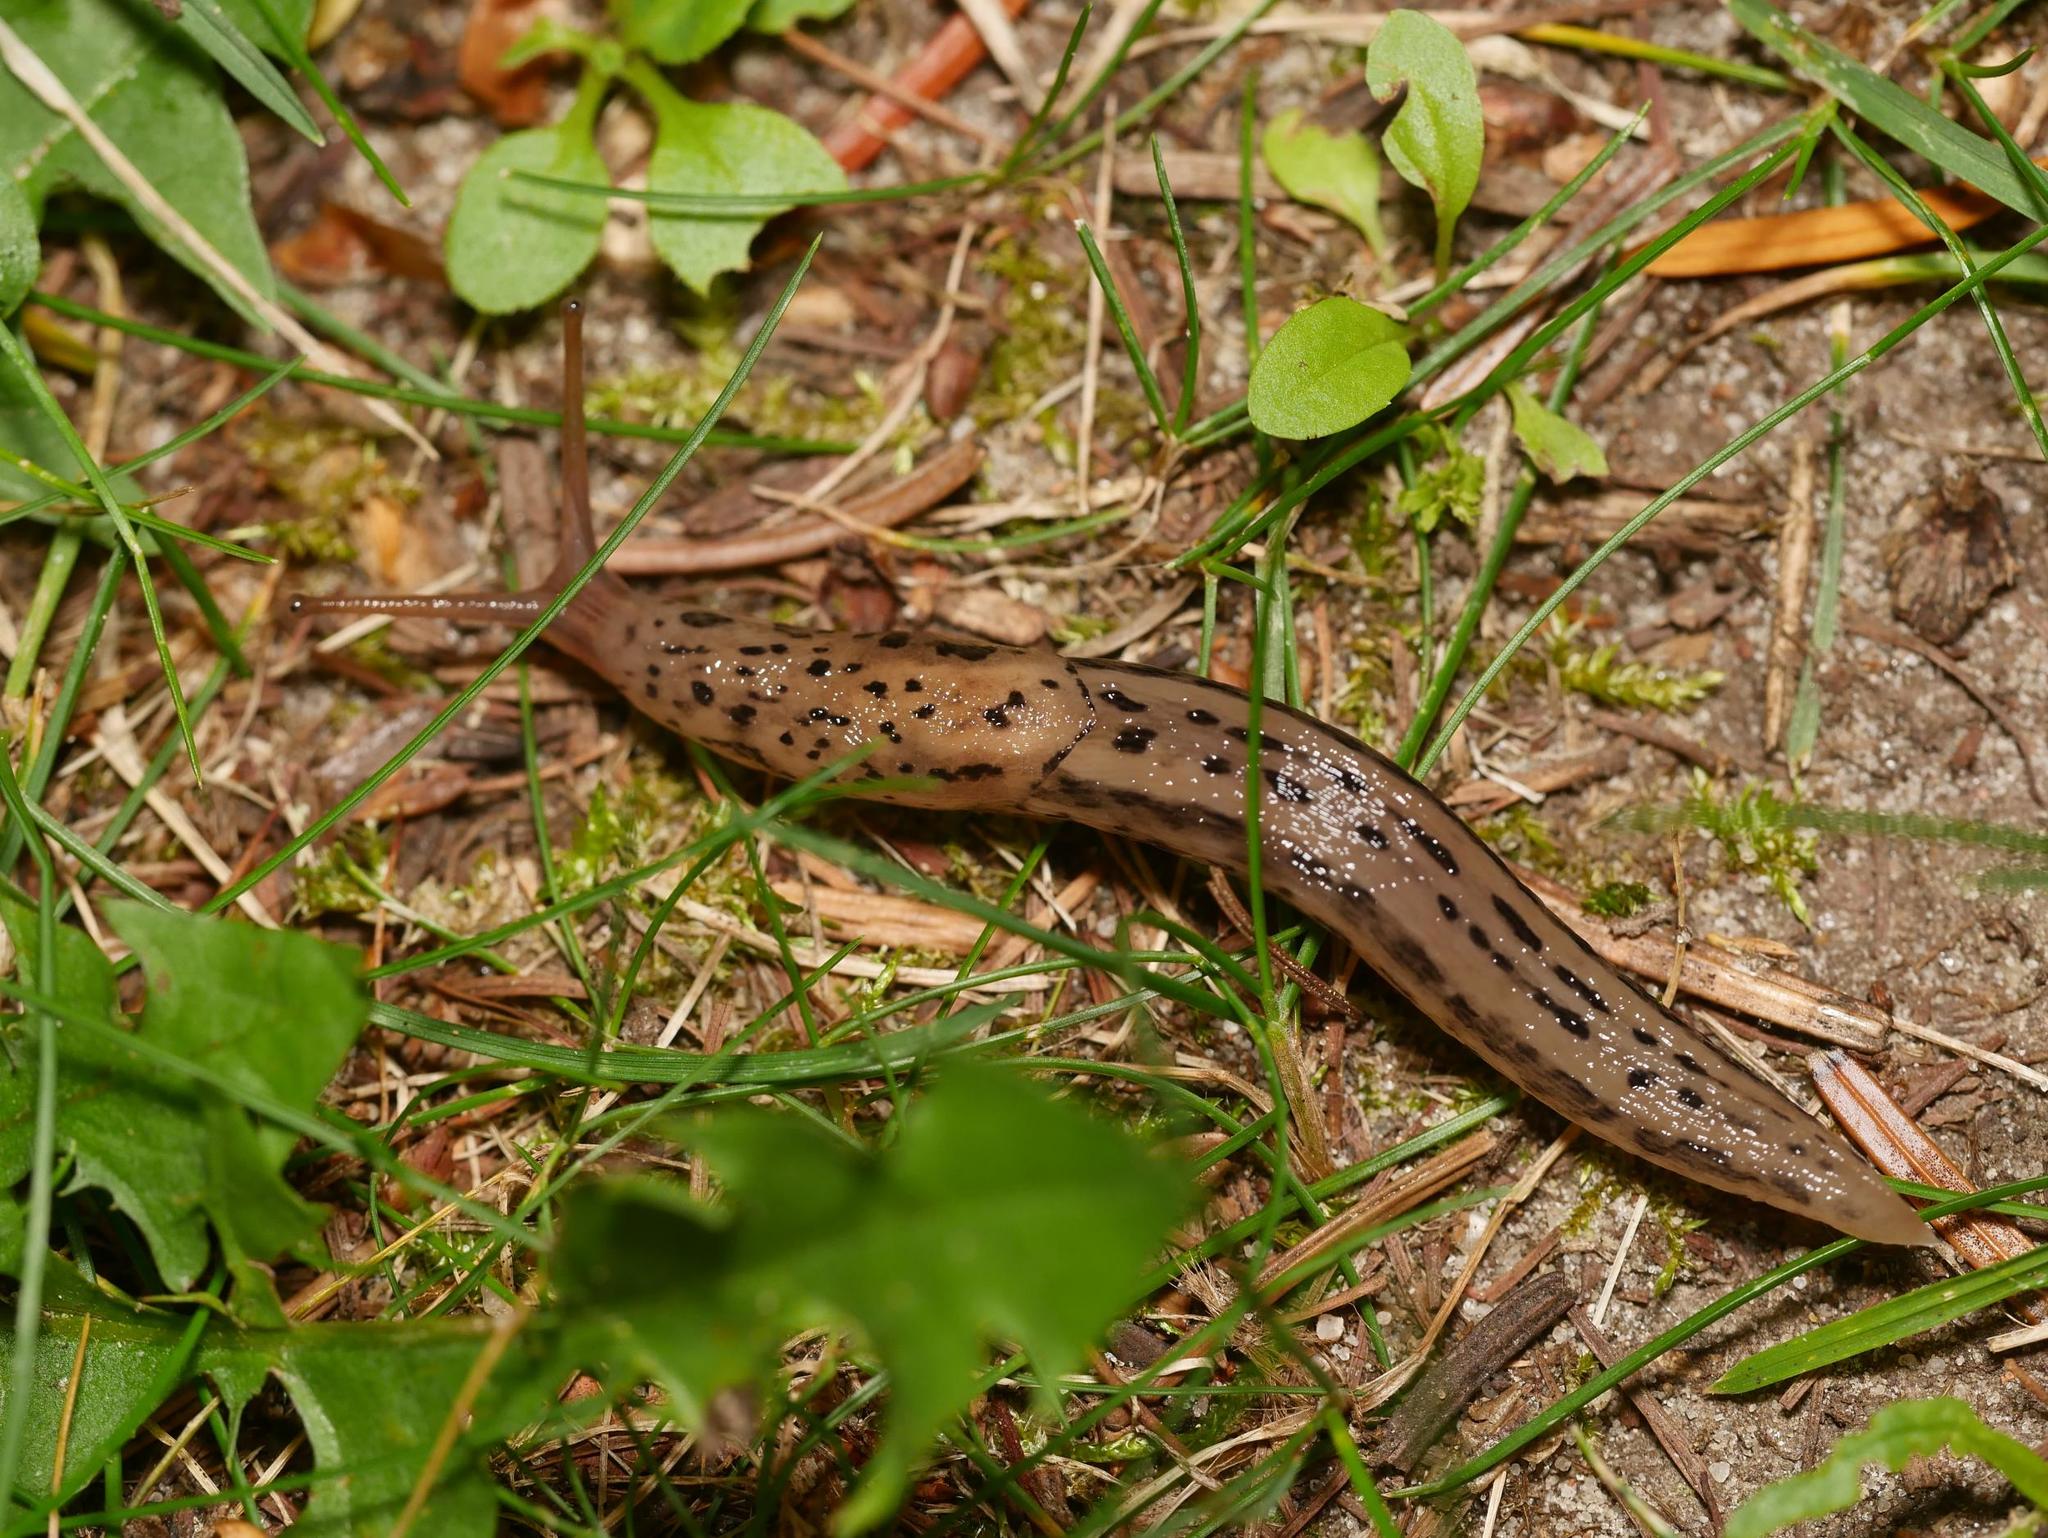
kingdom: Animalia
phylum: Mollusca
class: Gastropoda
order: Stylommatophora
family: Limacidae
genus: Limax
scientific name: Limax maximus
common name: Great grey slug
